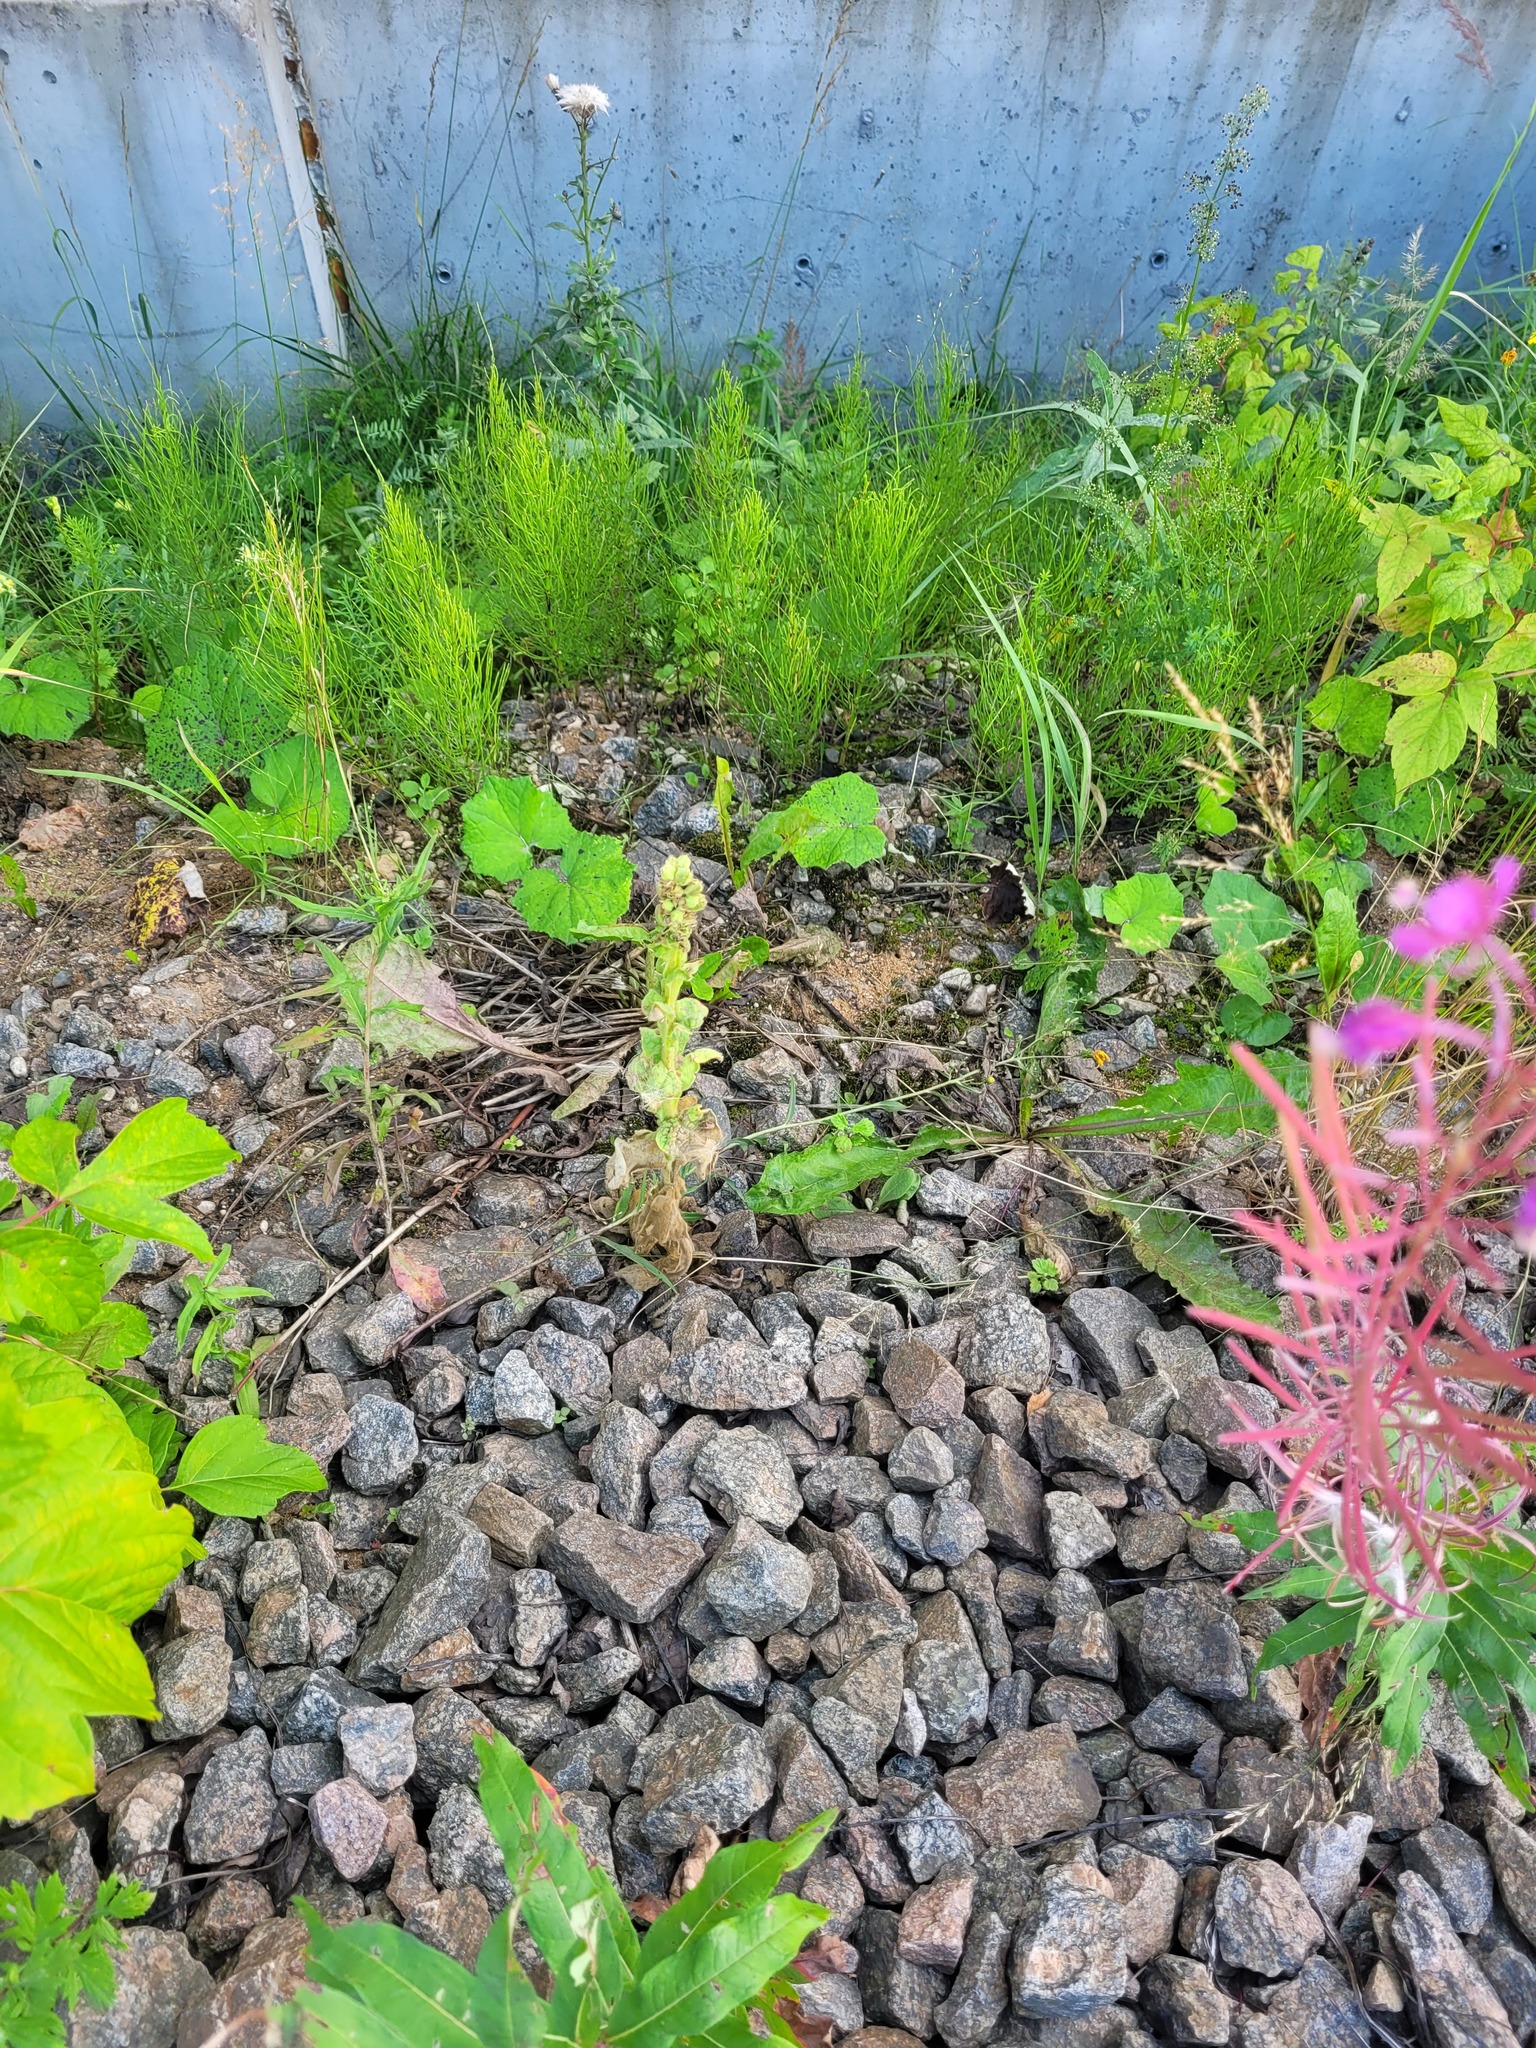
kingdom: Plantae
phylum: Tracheophyta
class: Magnoliopsida
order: Lamiales
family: Scrophulariaceae
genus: Verbascum
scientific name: Verbascum thapsus
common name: Common mullein
